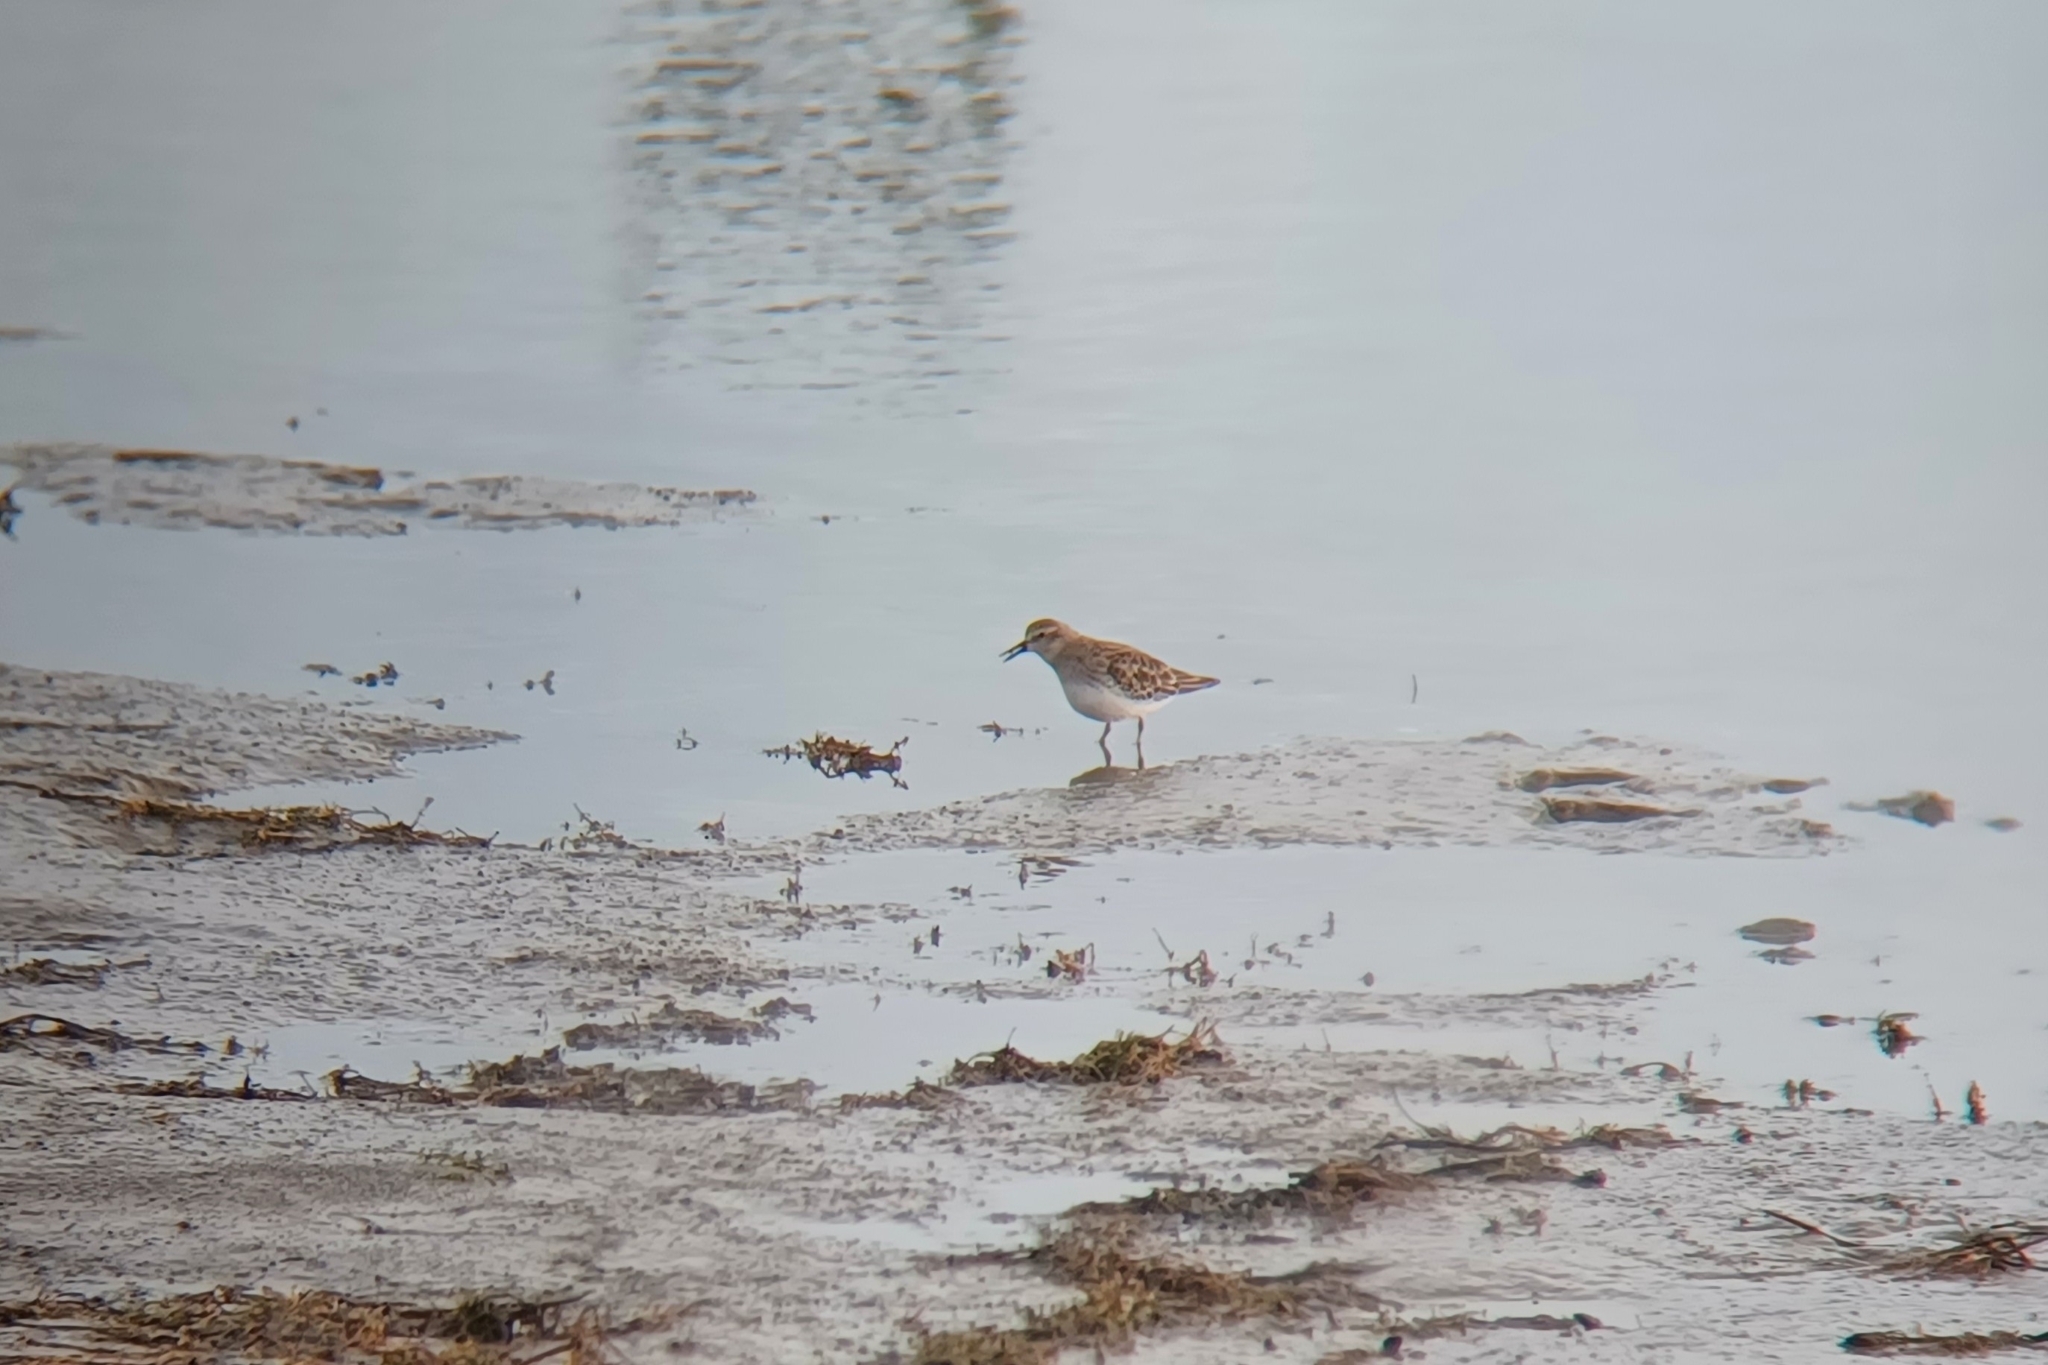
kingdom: Animalia
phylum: Chordata
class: Aves
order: Charadriiformes
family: Scolopacidae
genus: Calidris
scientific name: Calidris minutilla
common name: Least sandpiper
